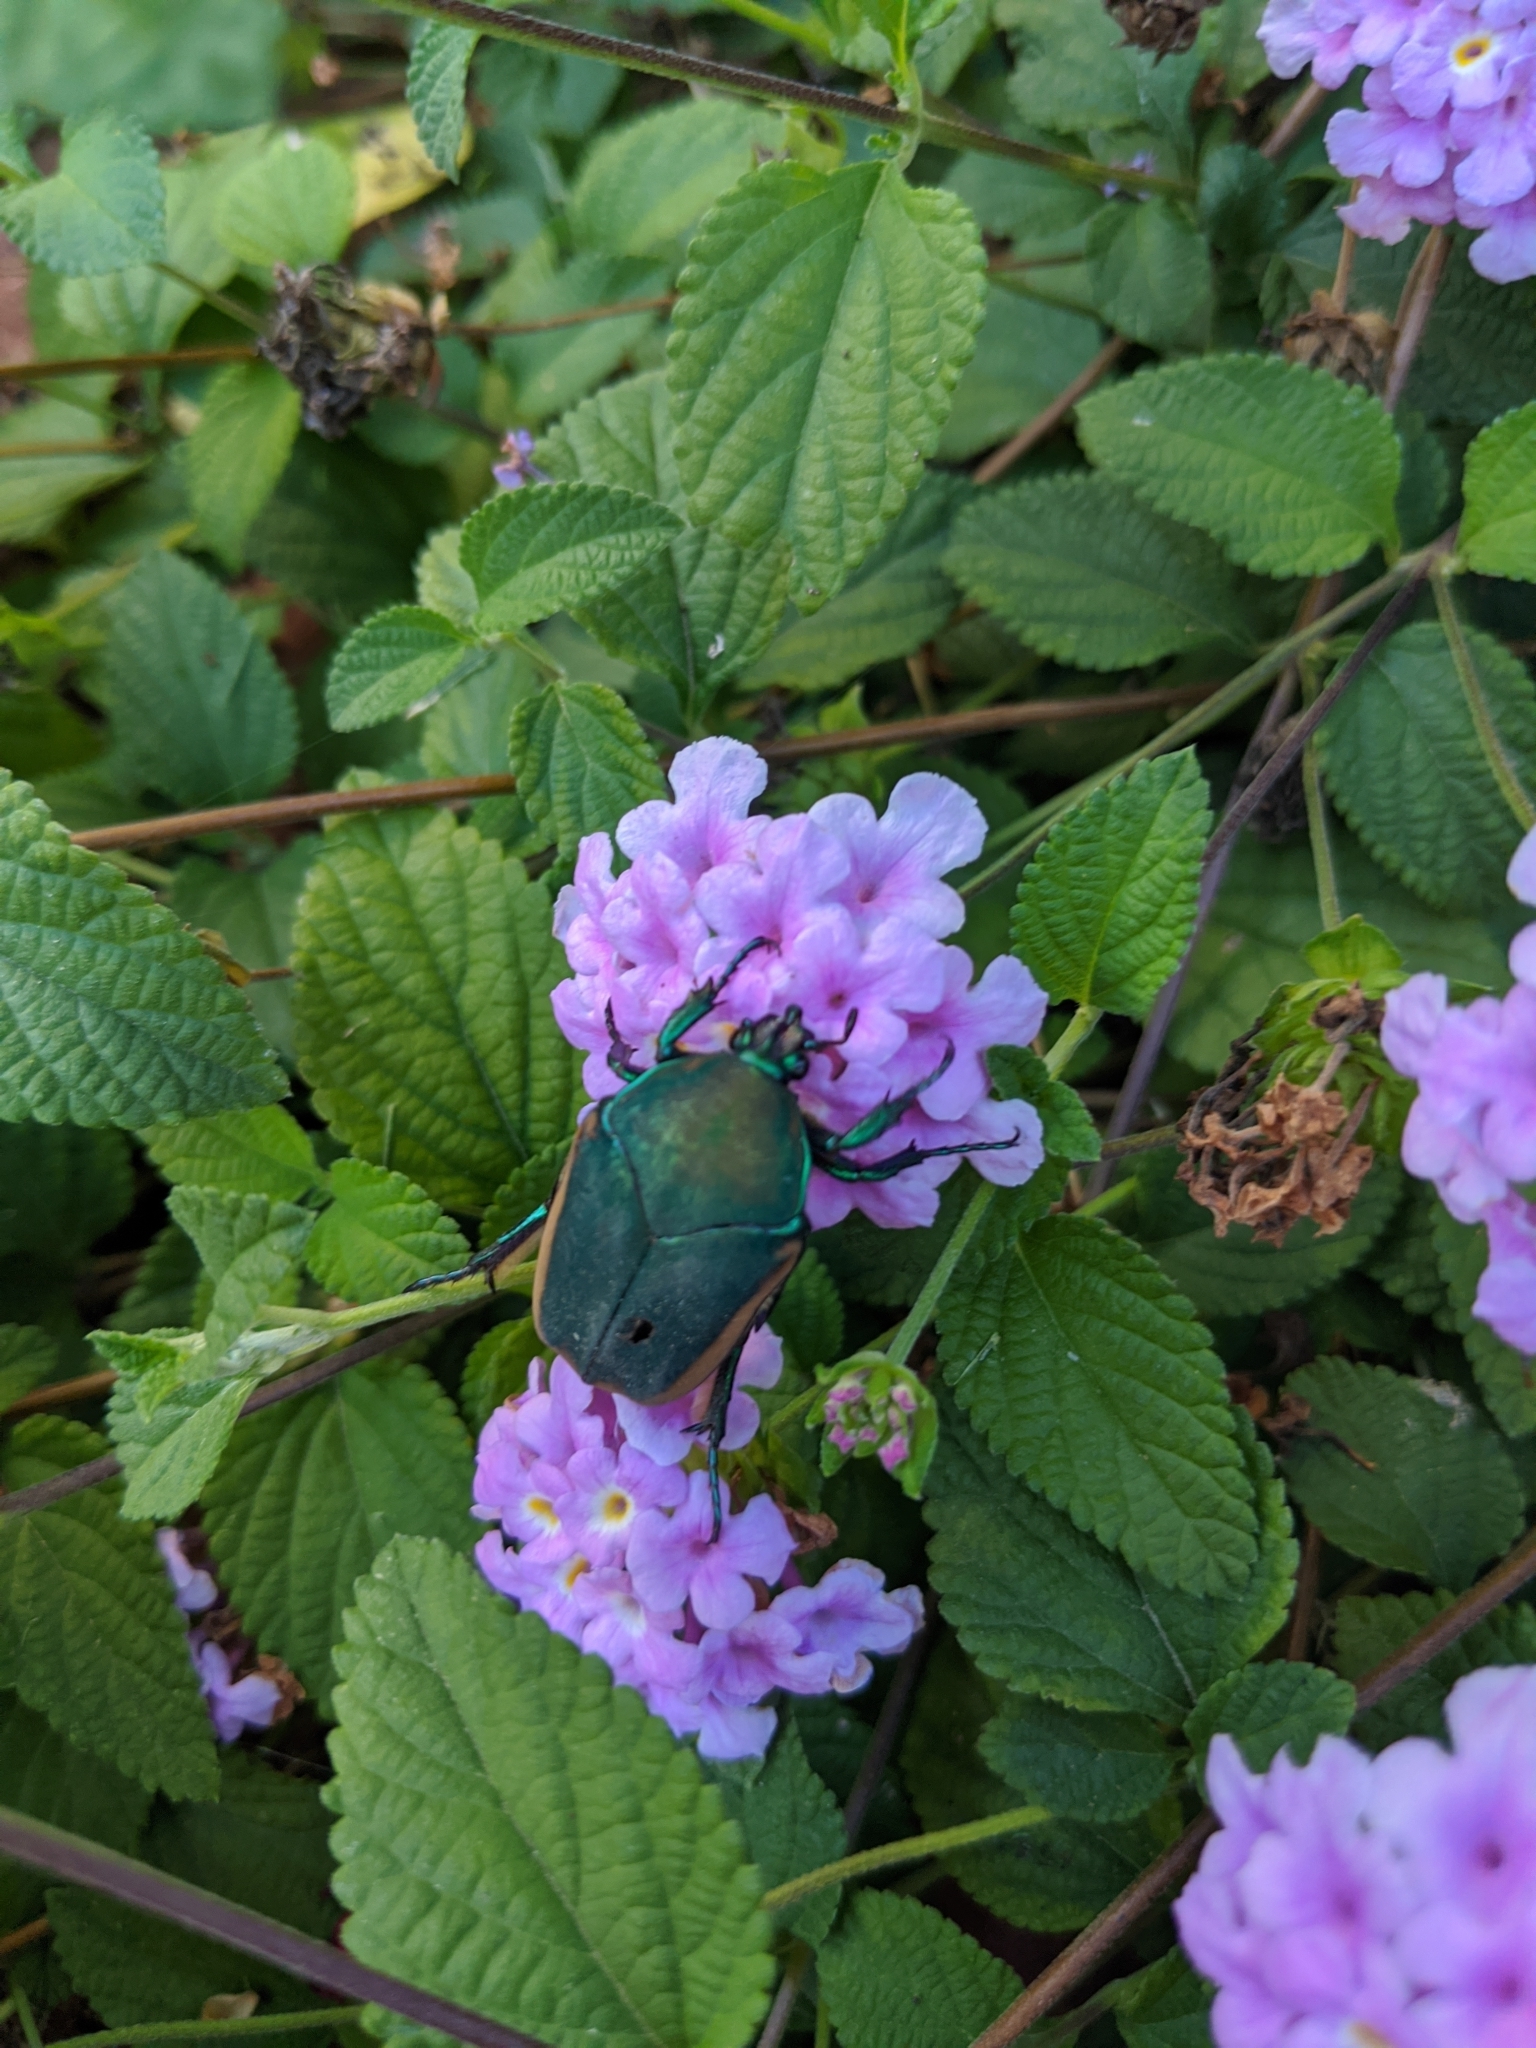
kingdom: Animalia
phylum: Arthropoda
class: Insecta
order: Coleoptera
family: Scarabaeidae
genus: Cotinis
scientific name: Cotinis mutabilis
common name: Figeater beetle
